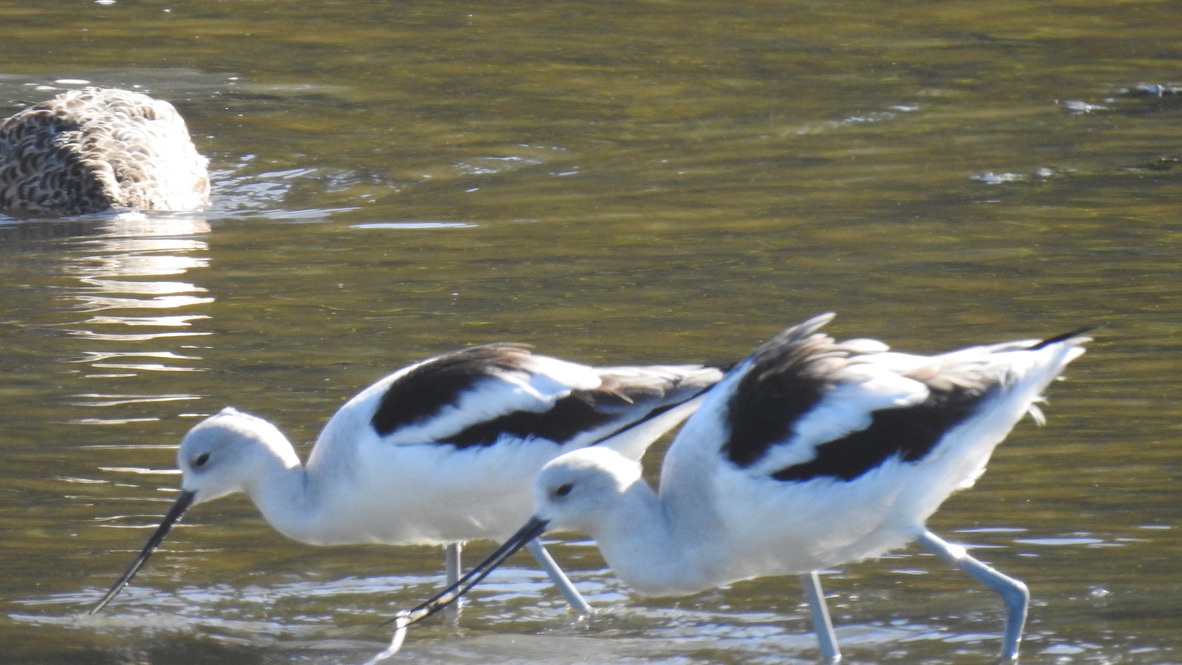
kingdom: Animalia
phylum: Chordata
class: Aves
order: Charadriiformes
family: Recurvirostridae
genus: Recurvirostra
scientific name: Recurvirostra americana
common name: American avocet
